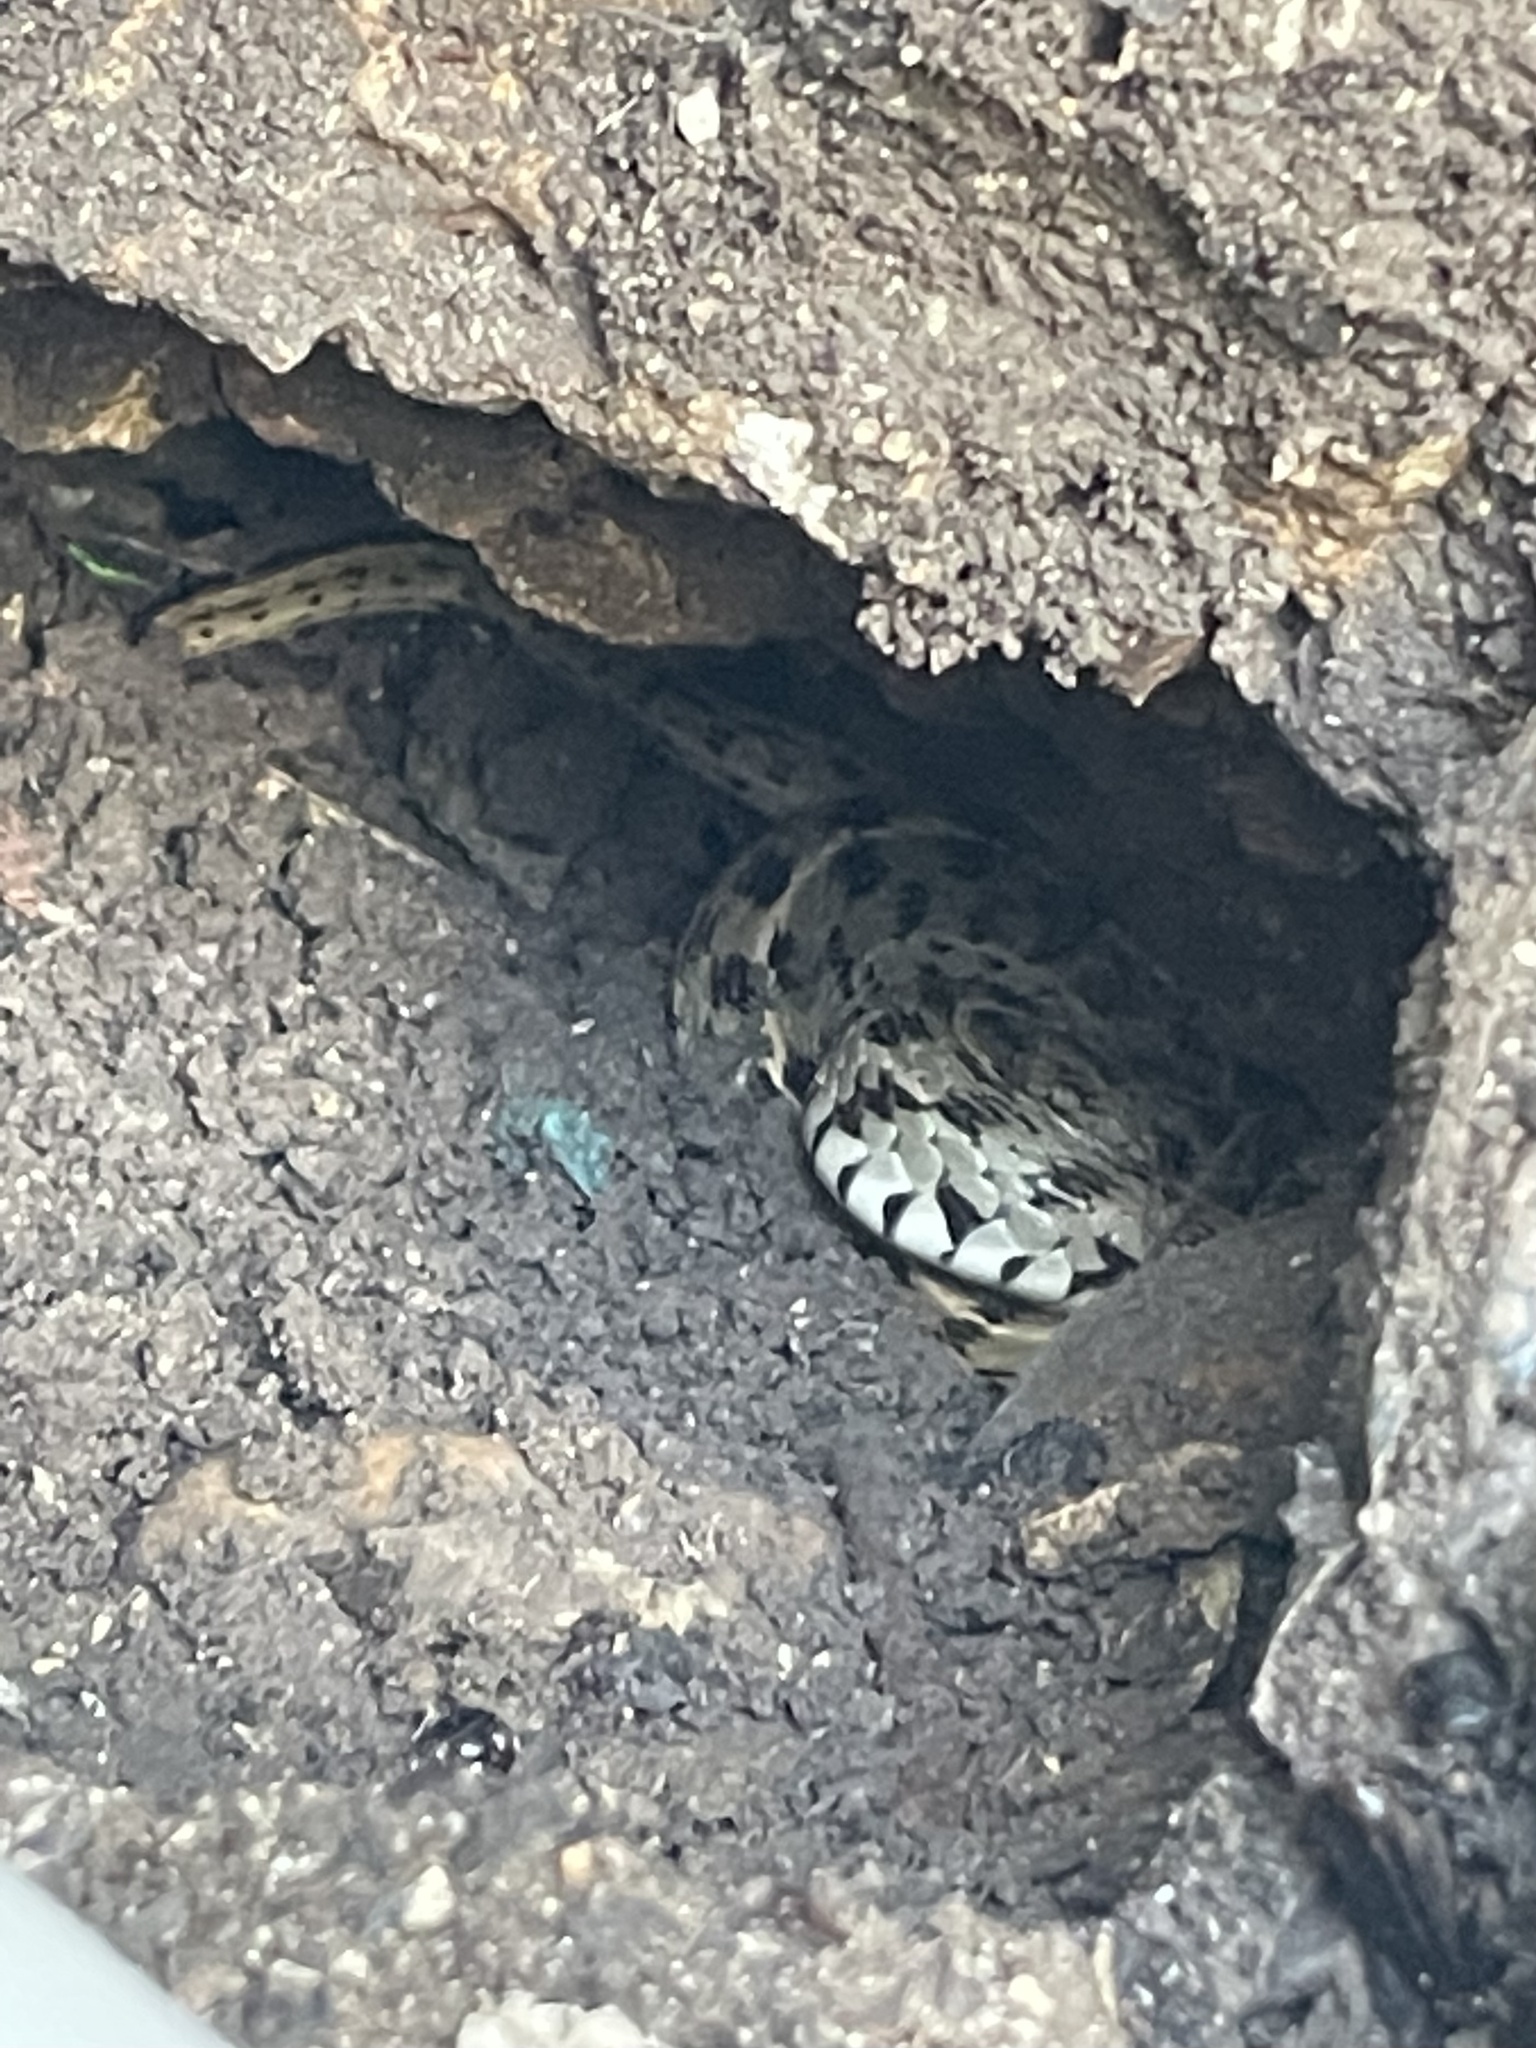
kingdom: Animalia
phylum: Chordata
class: Squamata
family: Colubridae
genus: Thamnophis
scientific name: Thamnophis marcianus
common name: Checkered garter snake
